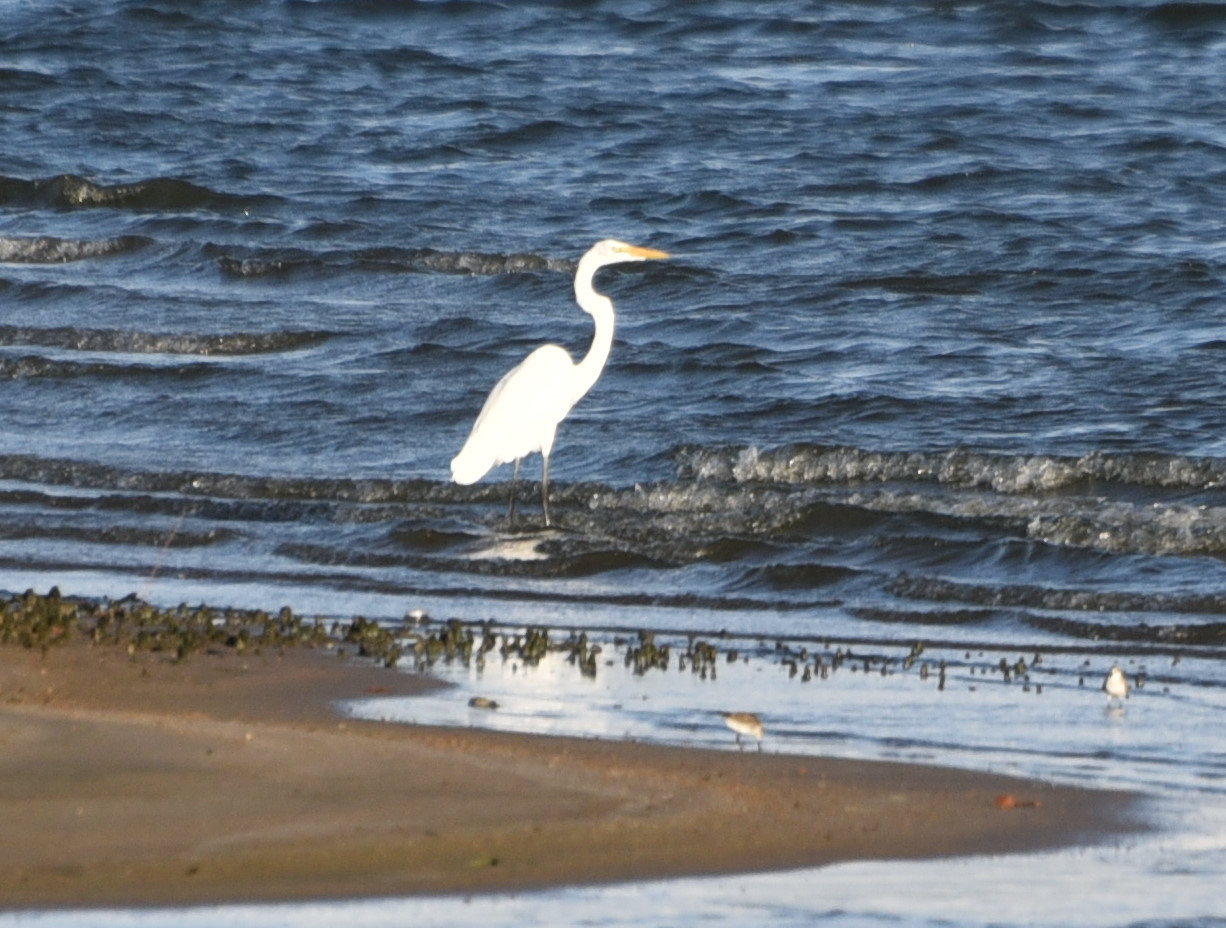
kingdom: Animalia
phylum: Chordata
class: Aves
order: Pelecaniformes
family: Ardeidae
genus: Ardea
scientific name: Ardea alba
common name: Great egret
